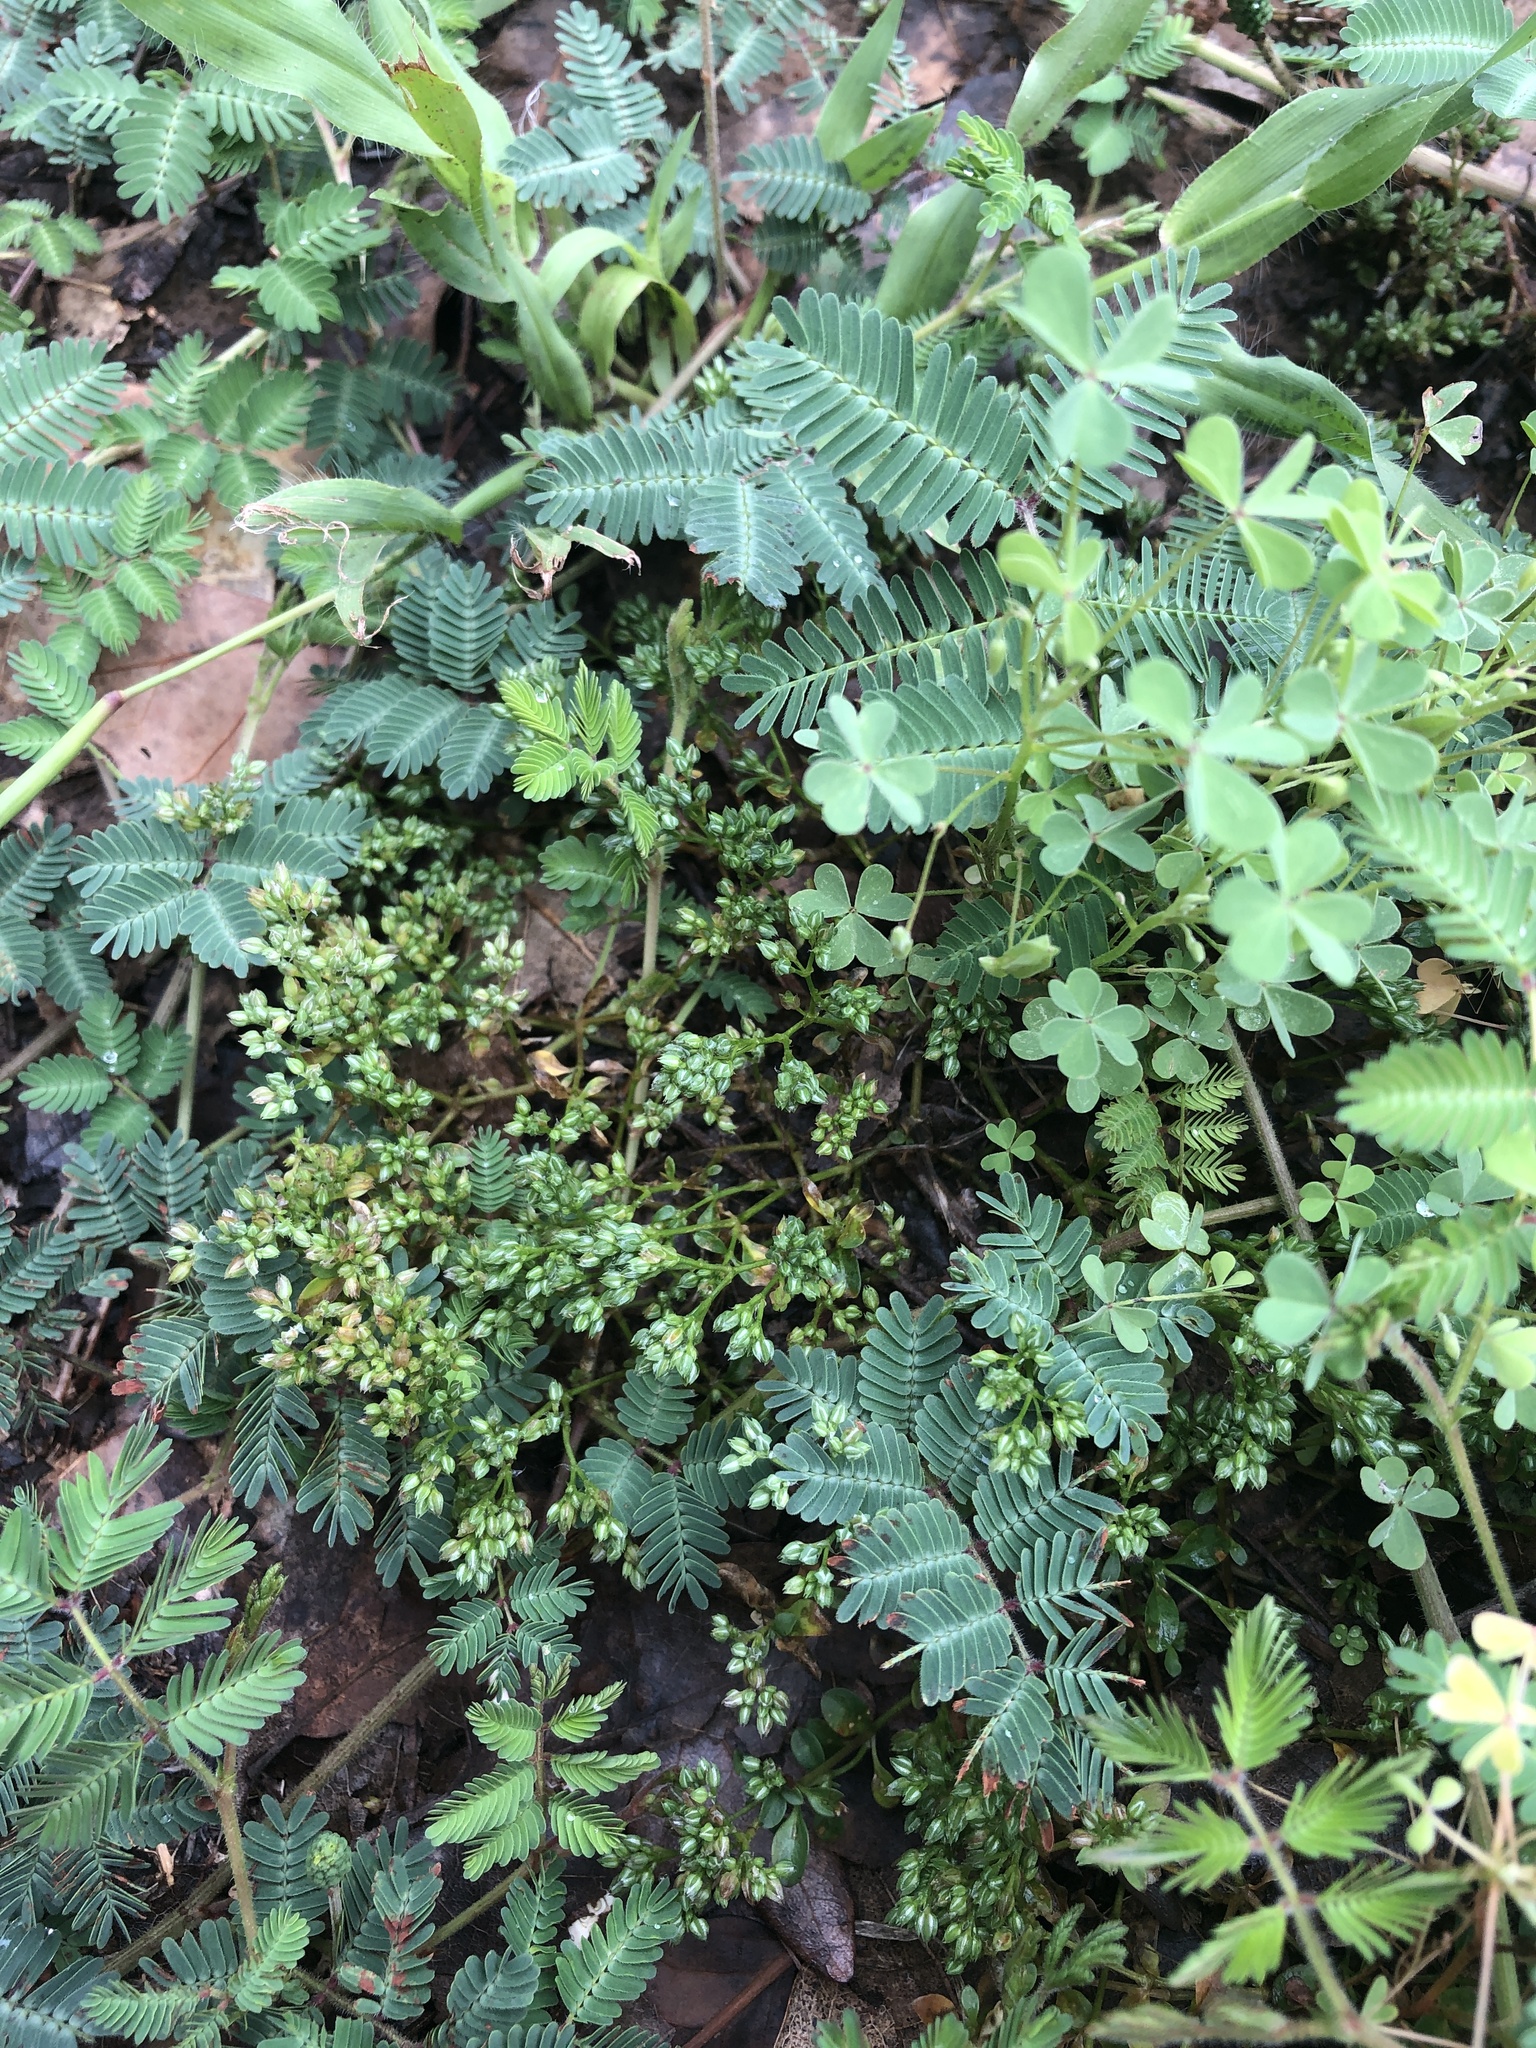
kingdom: Plantae
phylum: Tracheophyta
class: Magnoliopsida
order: Caryophyllales
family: Caryophyllaceae
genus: Polycarpon
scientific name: Polycarpon tetraphyllum
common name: Four-leaved all-seed
